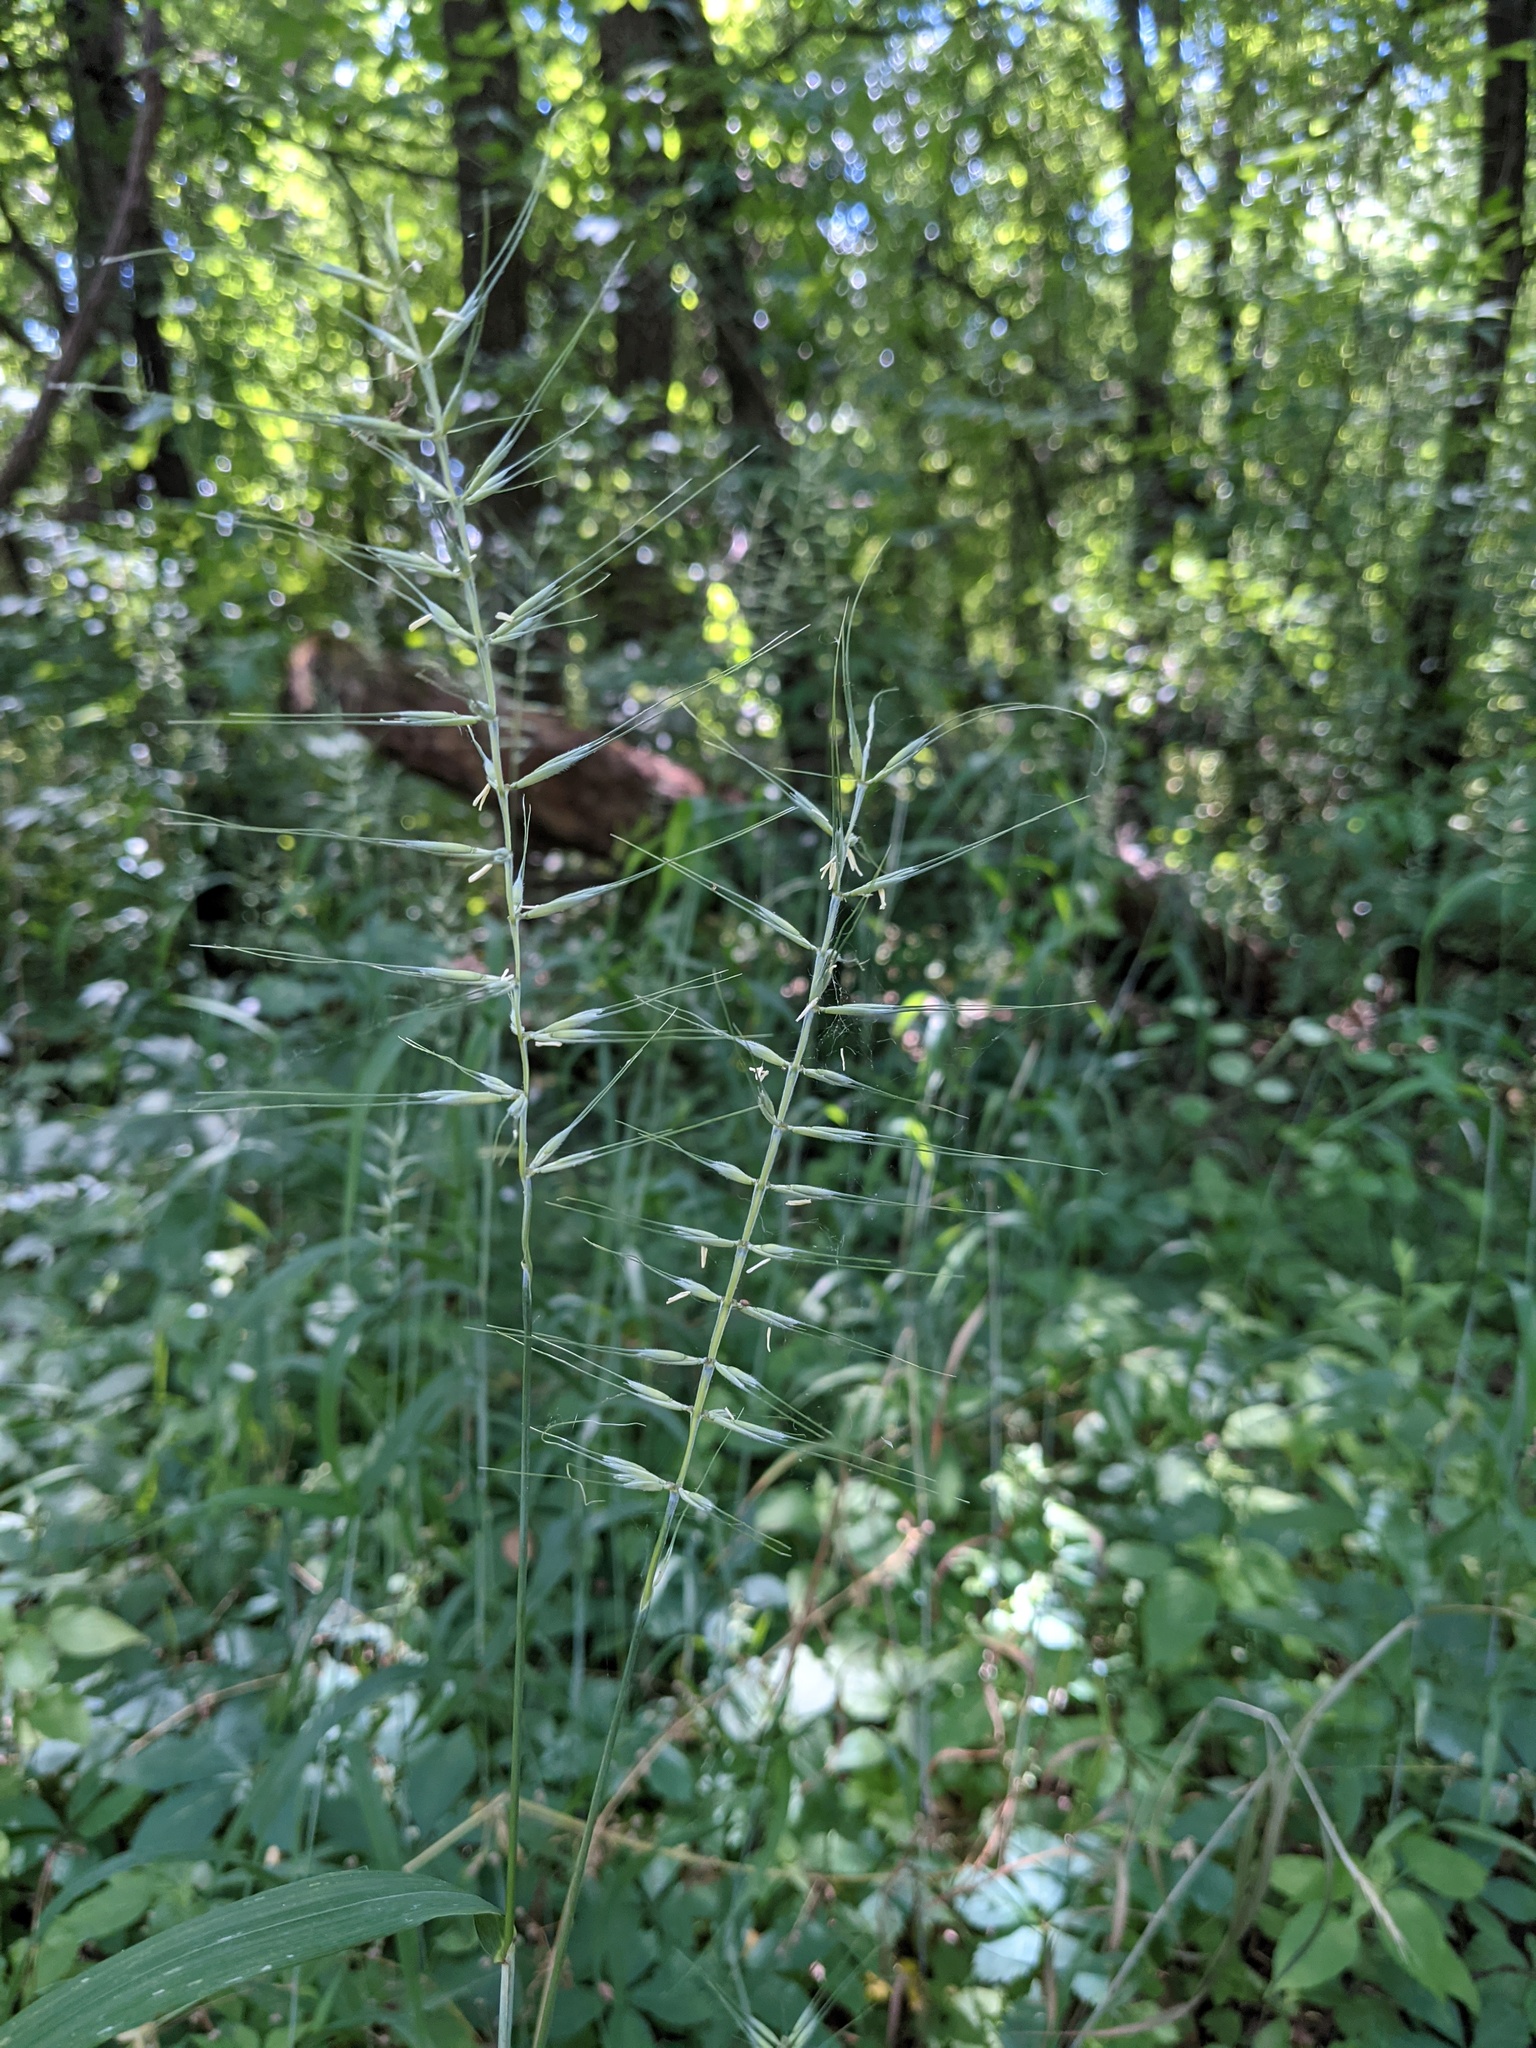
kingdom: Plantae
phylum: Tracheophyta
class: Liliopsida
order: Poales
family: Poaceae
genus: Elymus
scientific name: Elymus hystrix
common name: Bottlebrush grass
